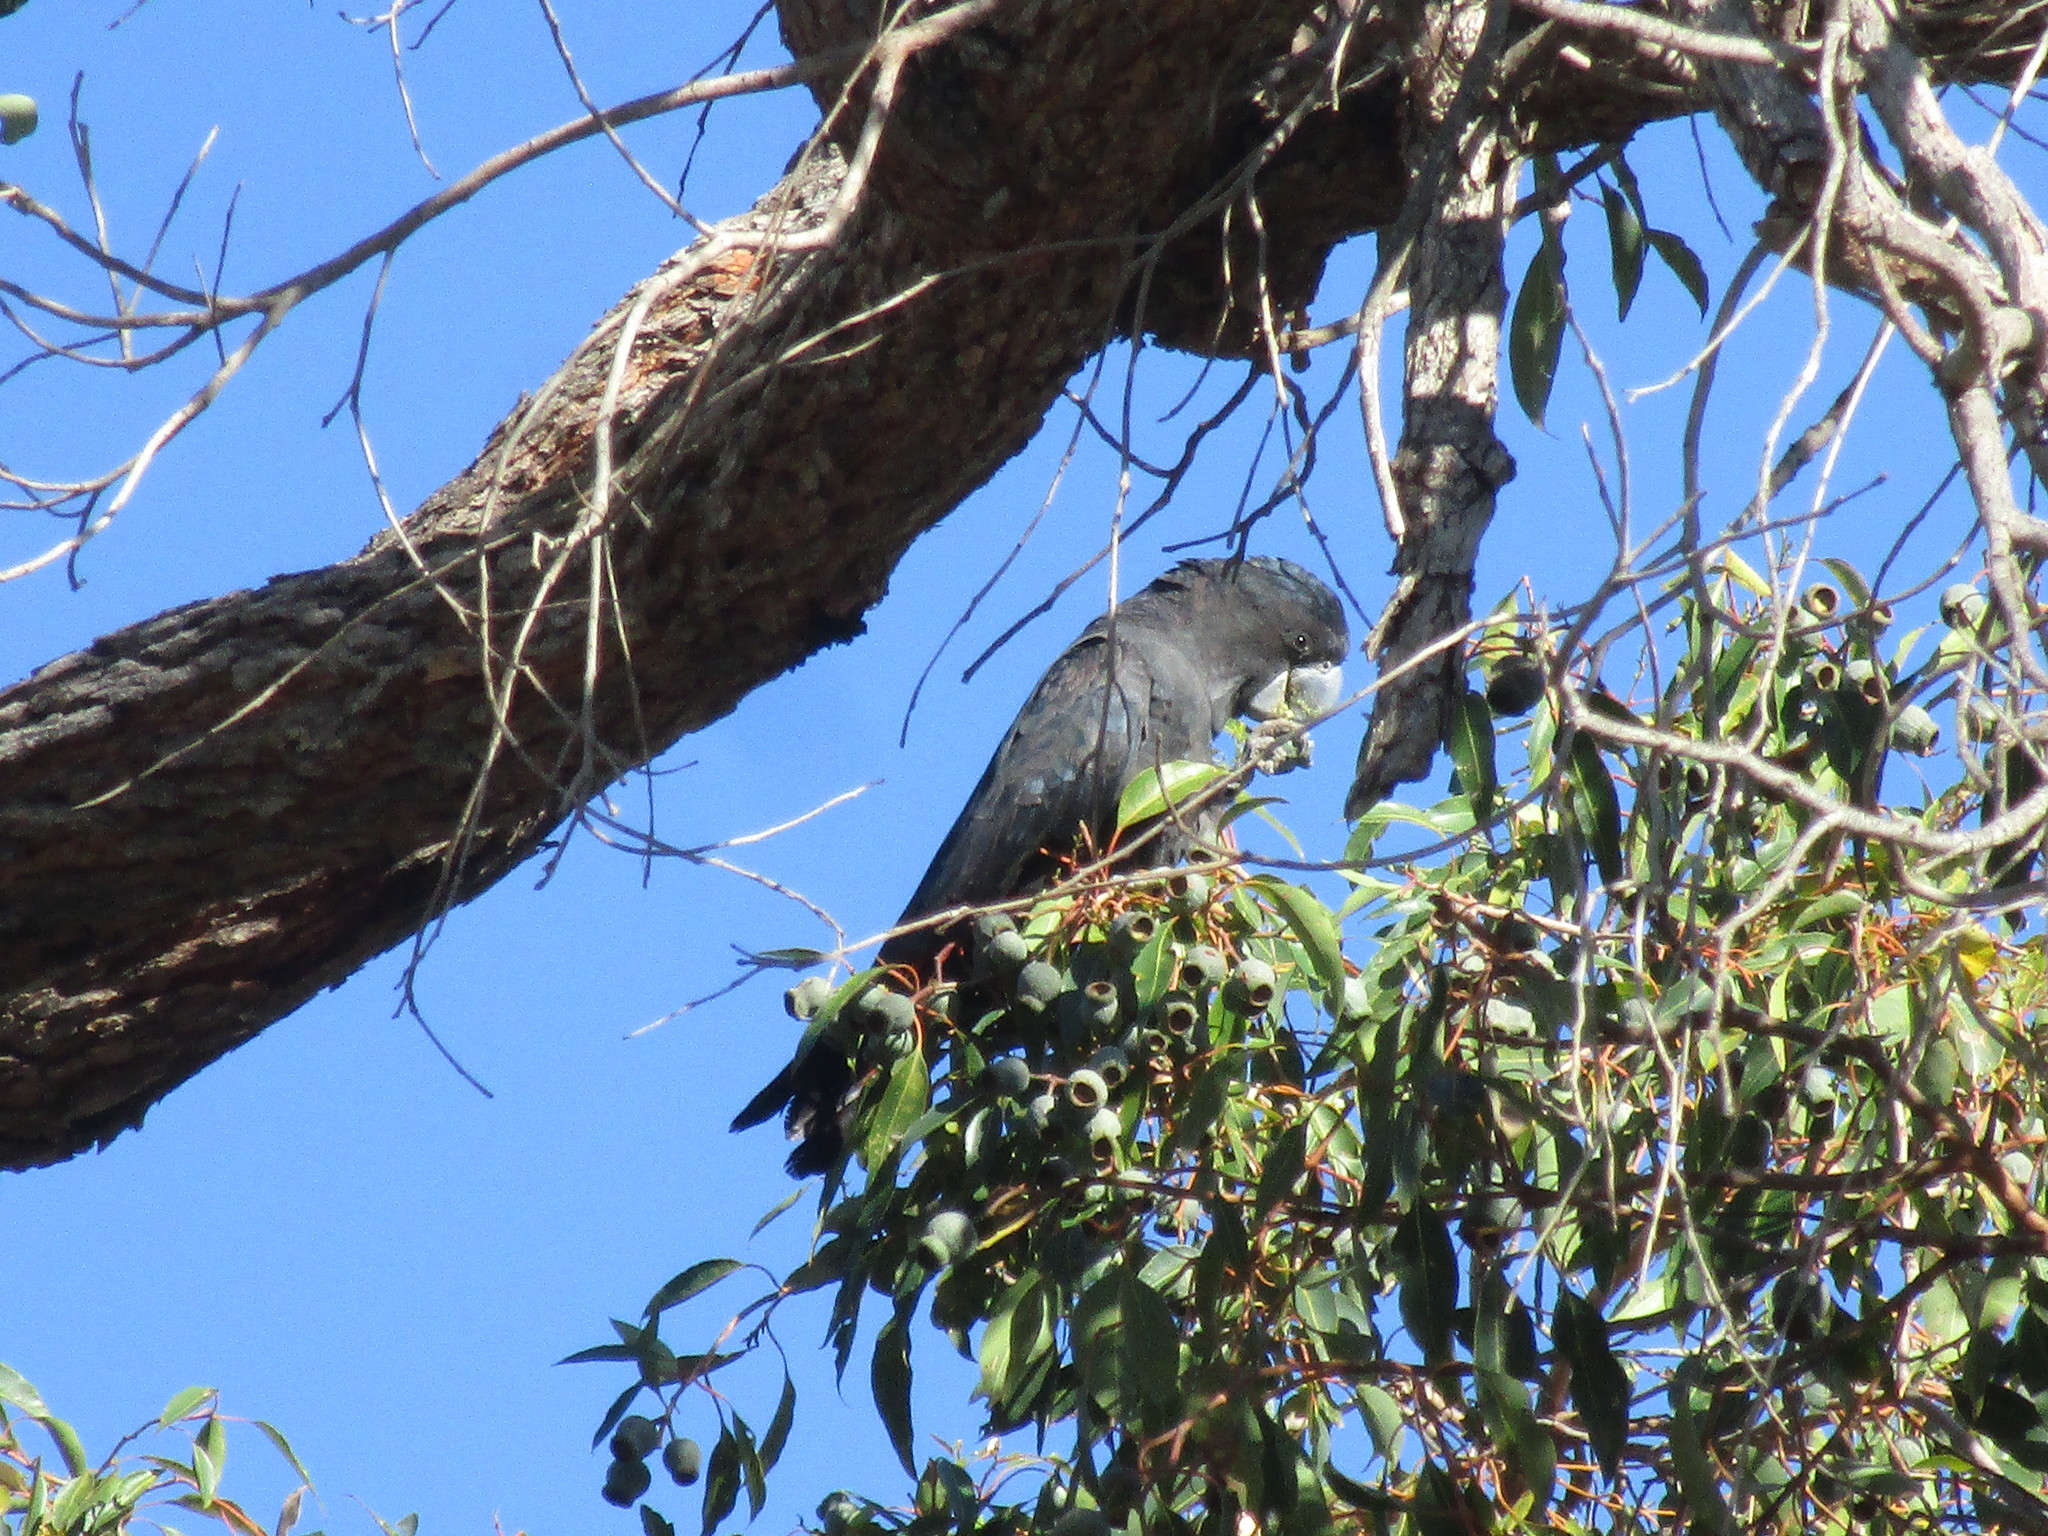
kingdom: Animalia
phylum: Chordata
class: Aves
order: Psittaciformes
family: Psittacidae
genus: Calyptorhynchus
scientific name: Calyptorhynchus banksii
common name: Red-tailed black cockatoo
